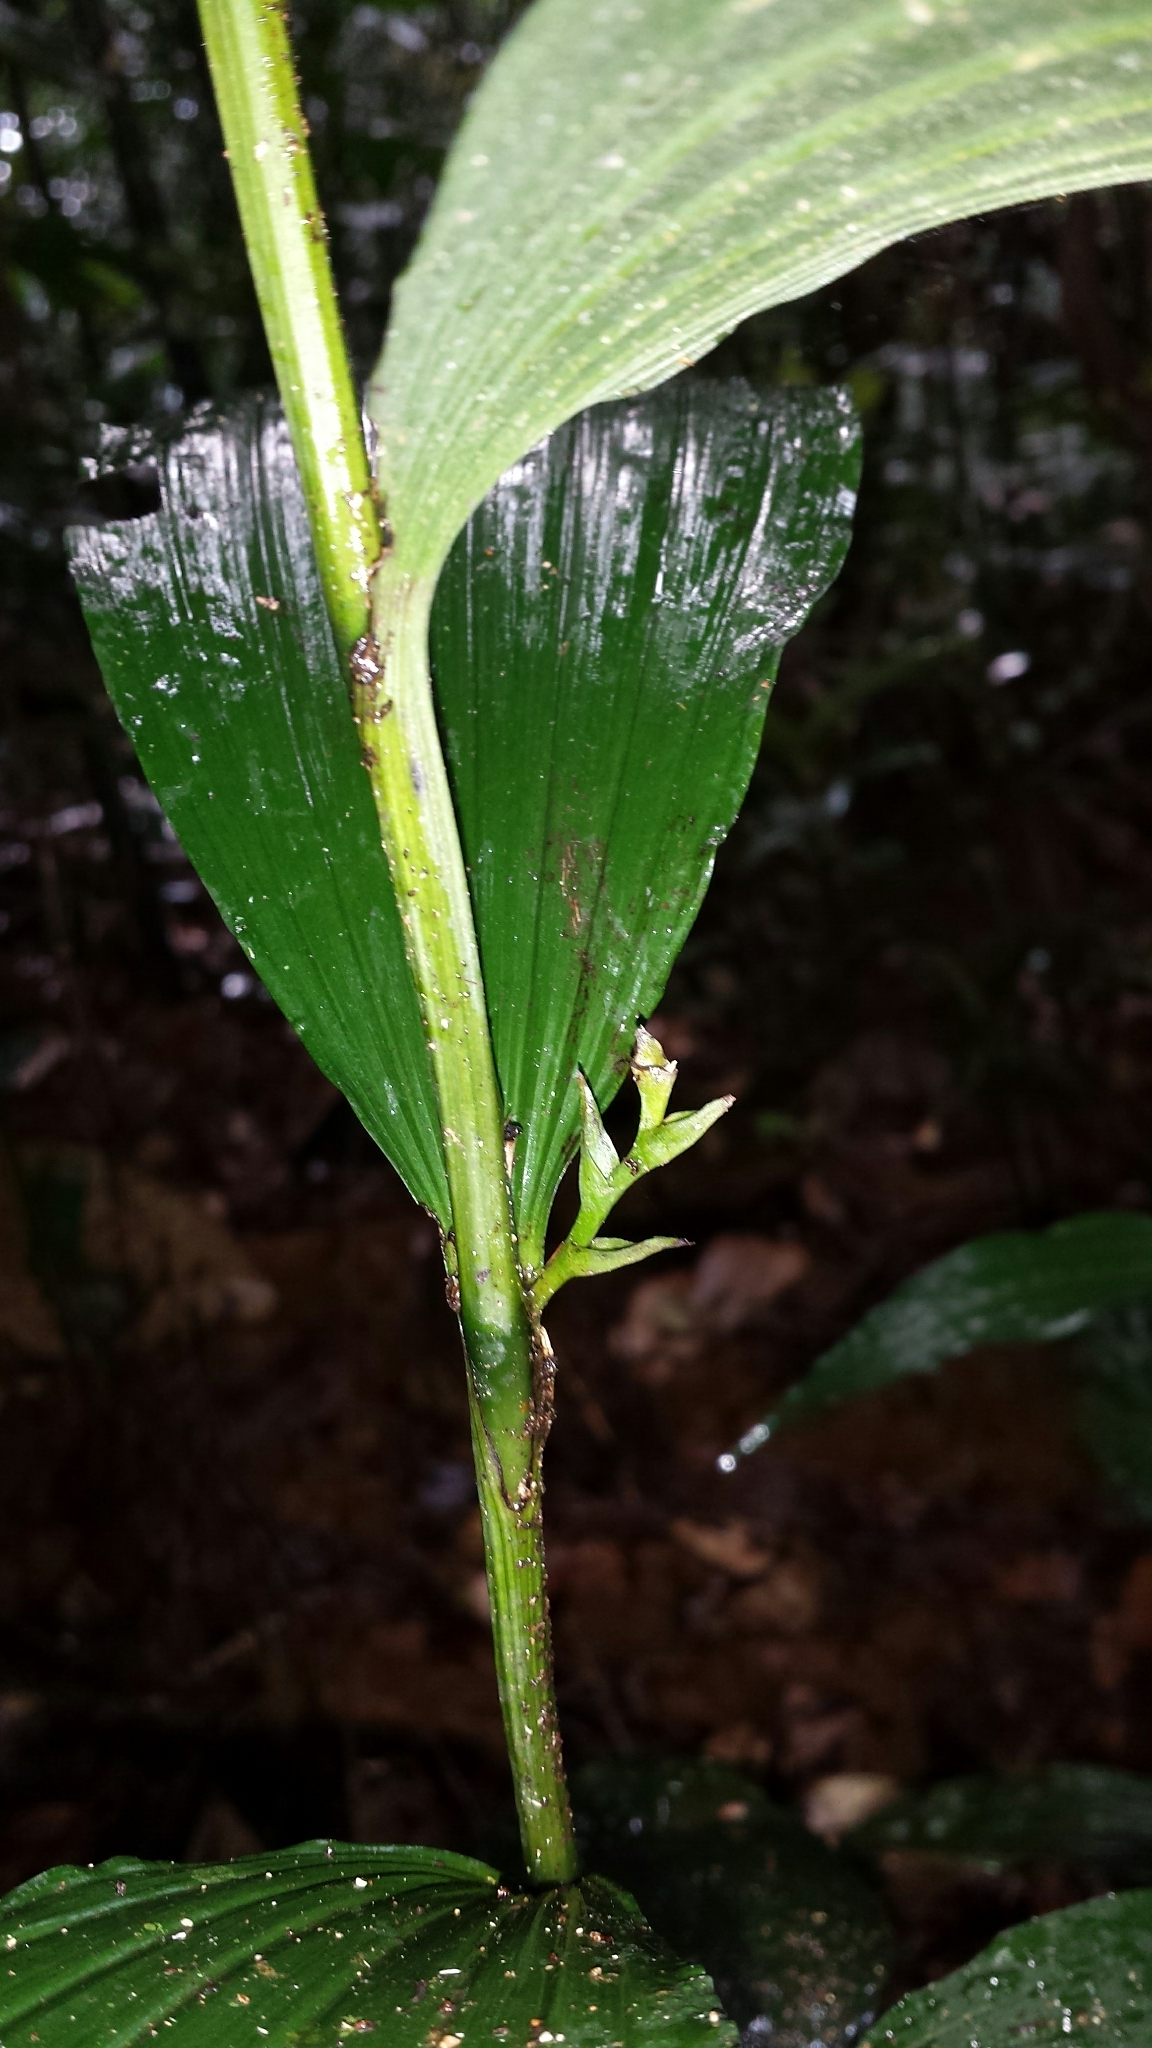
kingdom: Plantae
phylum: Tracheophyta
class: Liliopsida
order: Asparagales
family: Orchidaceae
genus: Corymborkis
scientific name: Corymborkis corymbis
